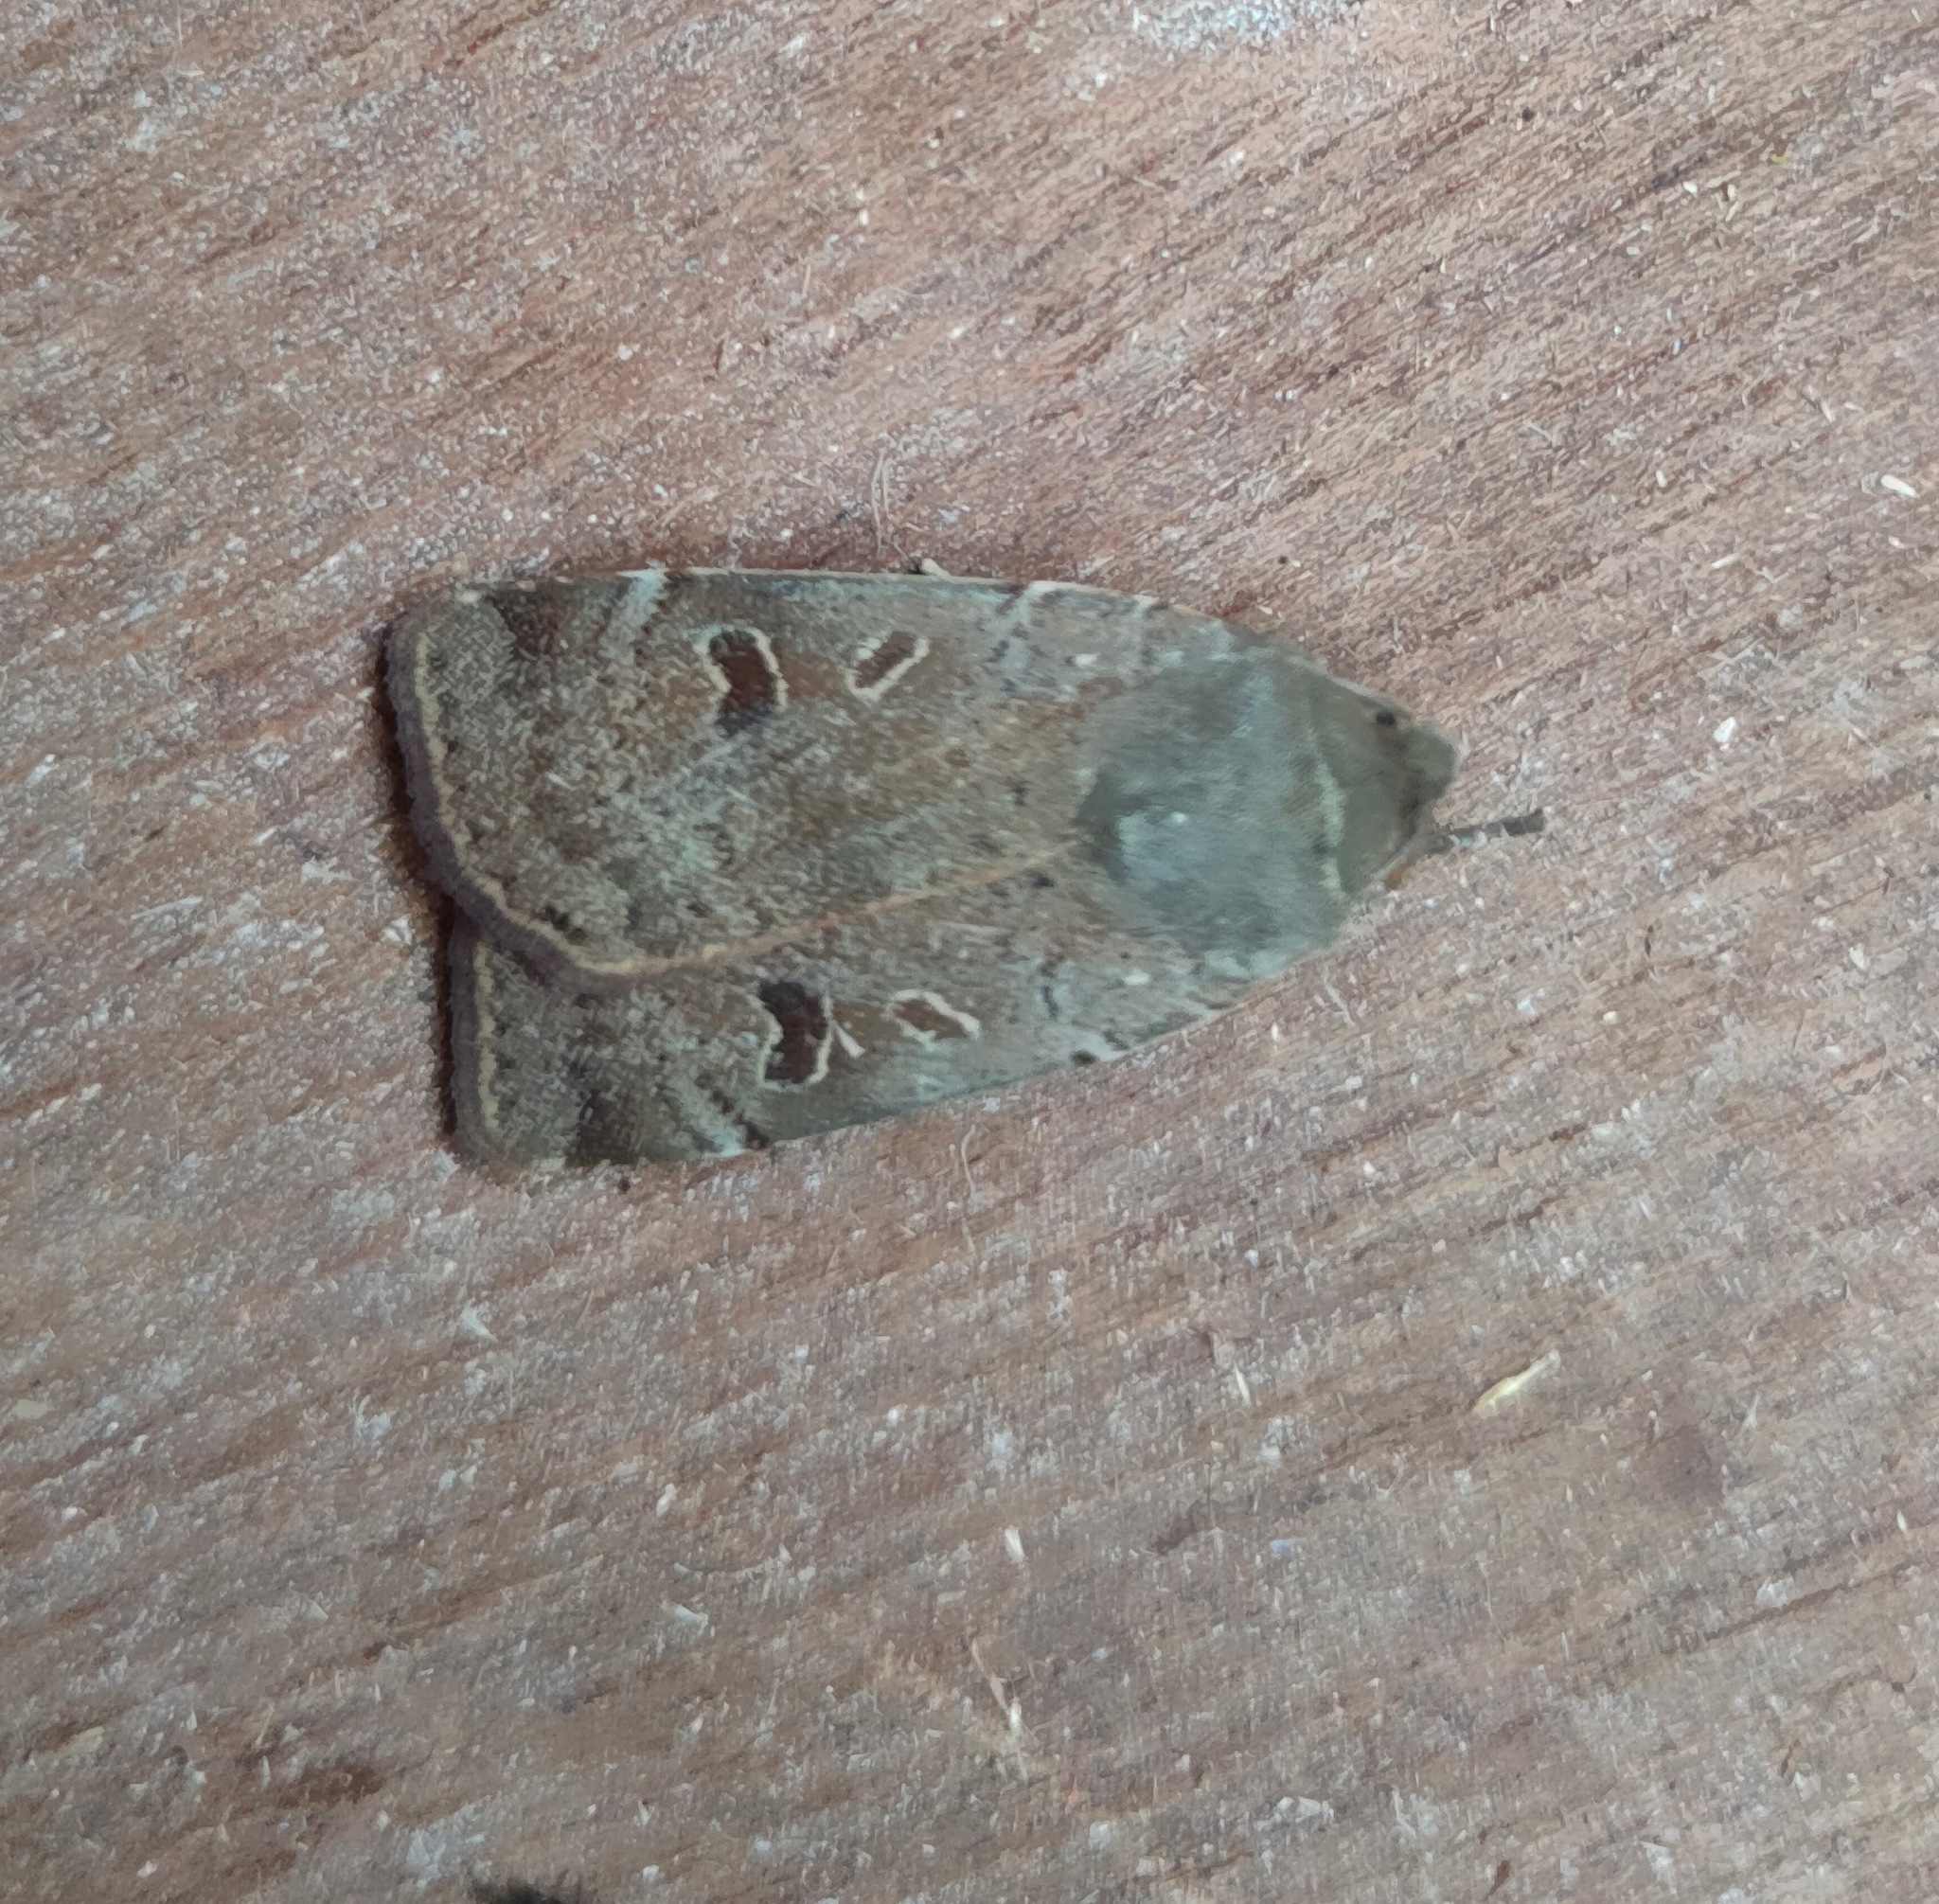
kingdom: Animalia
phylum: Arthropoda
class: Insecta
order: Lepidoptera
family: Noctuidae
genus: Noctua
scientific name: Noctua comes
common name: Lesser yellow underwing
